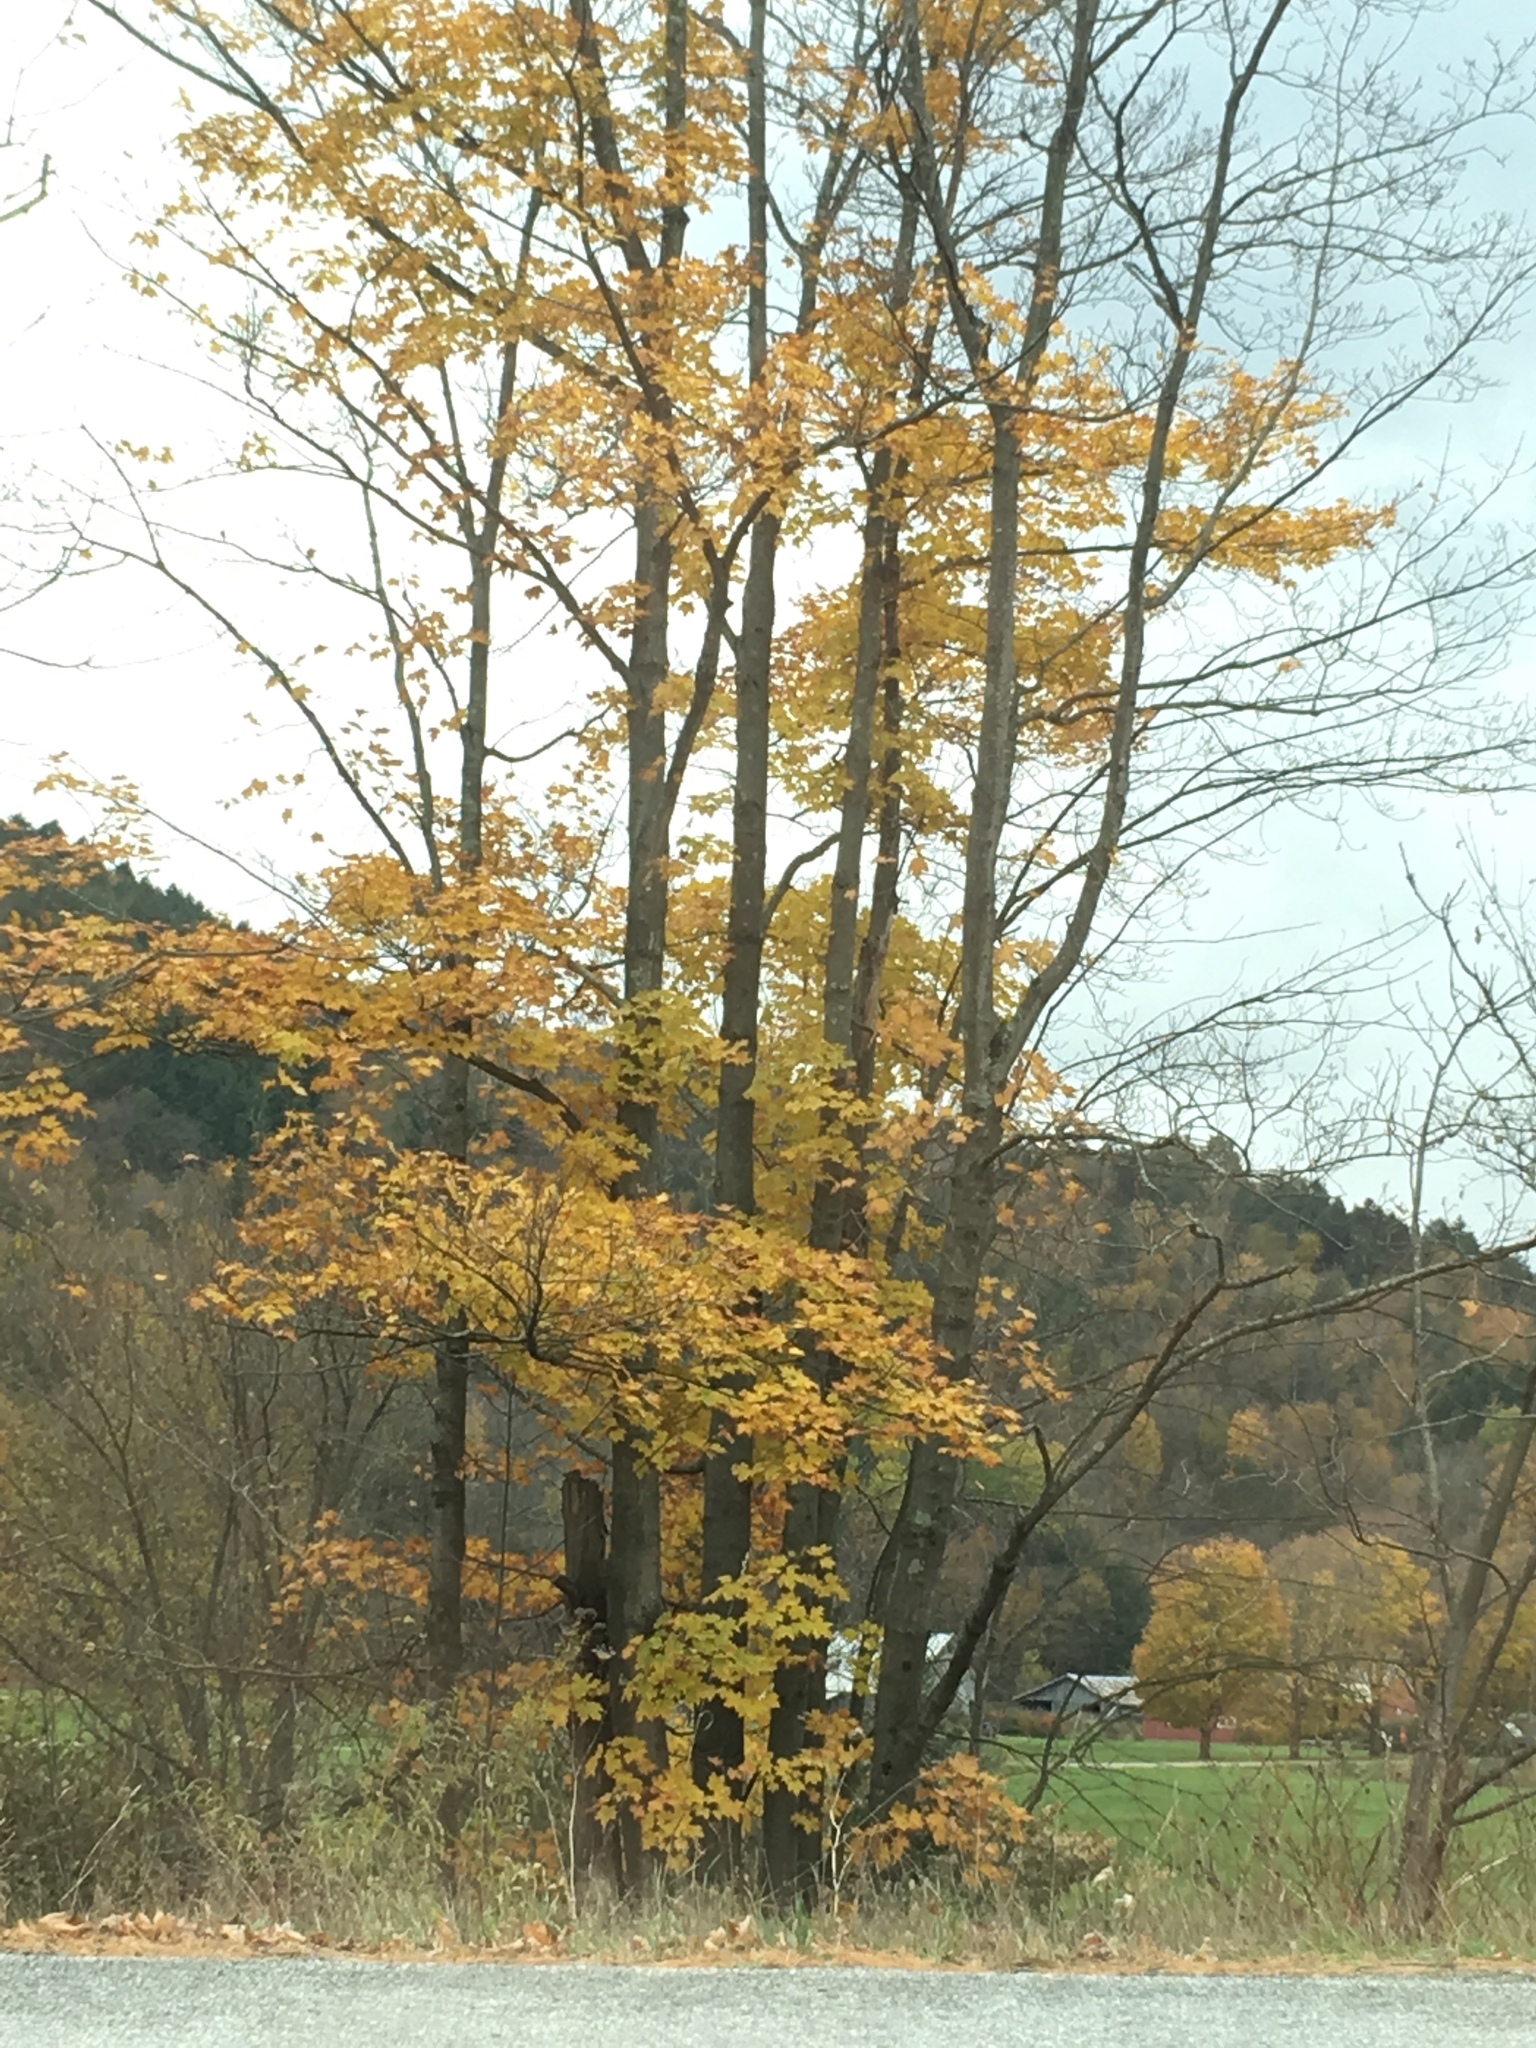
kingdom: Plantae
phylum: Tracheophyta
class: Magnoliopsida
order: Sapindales
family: Sapindaceae
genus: Acer
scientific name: Acer saccharum
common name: Sugar maple
